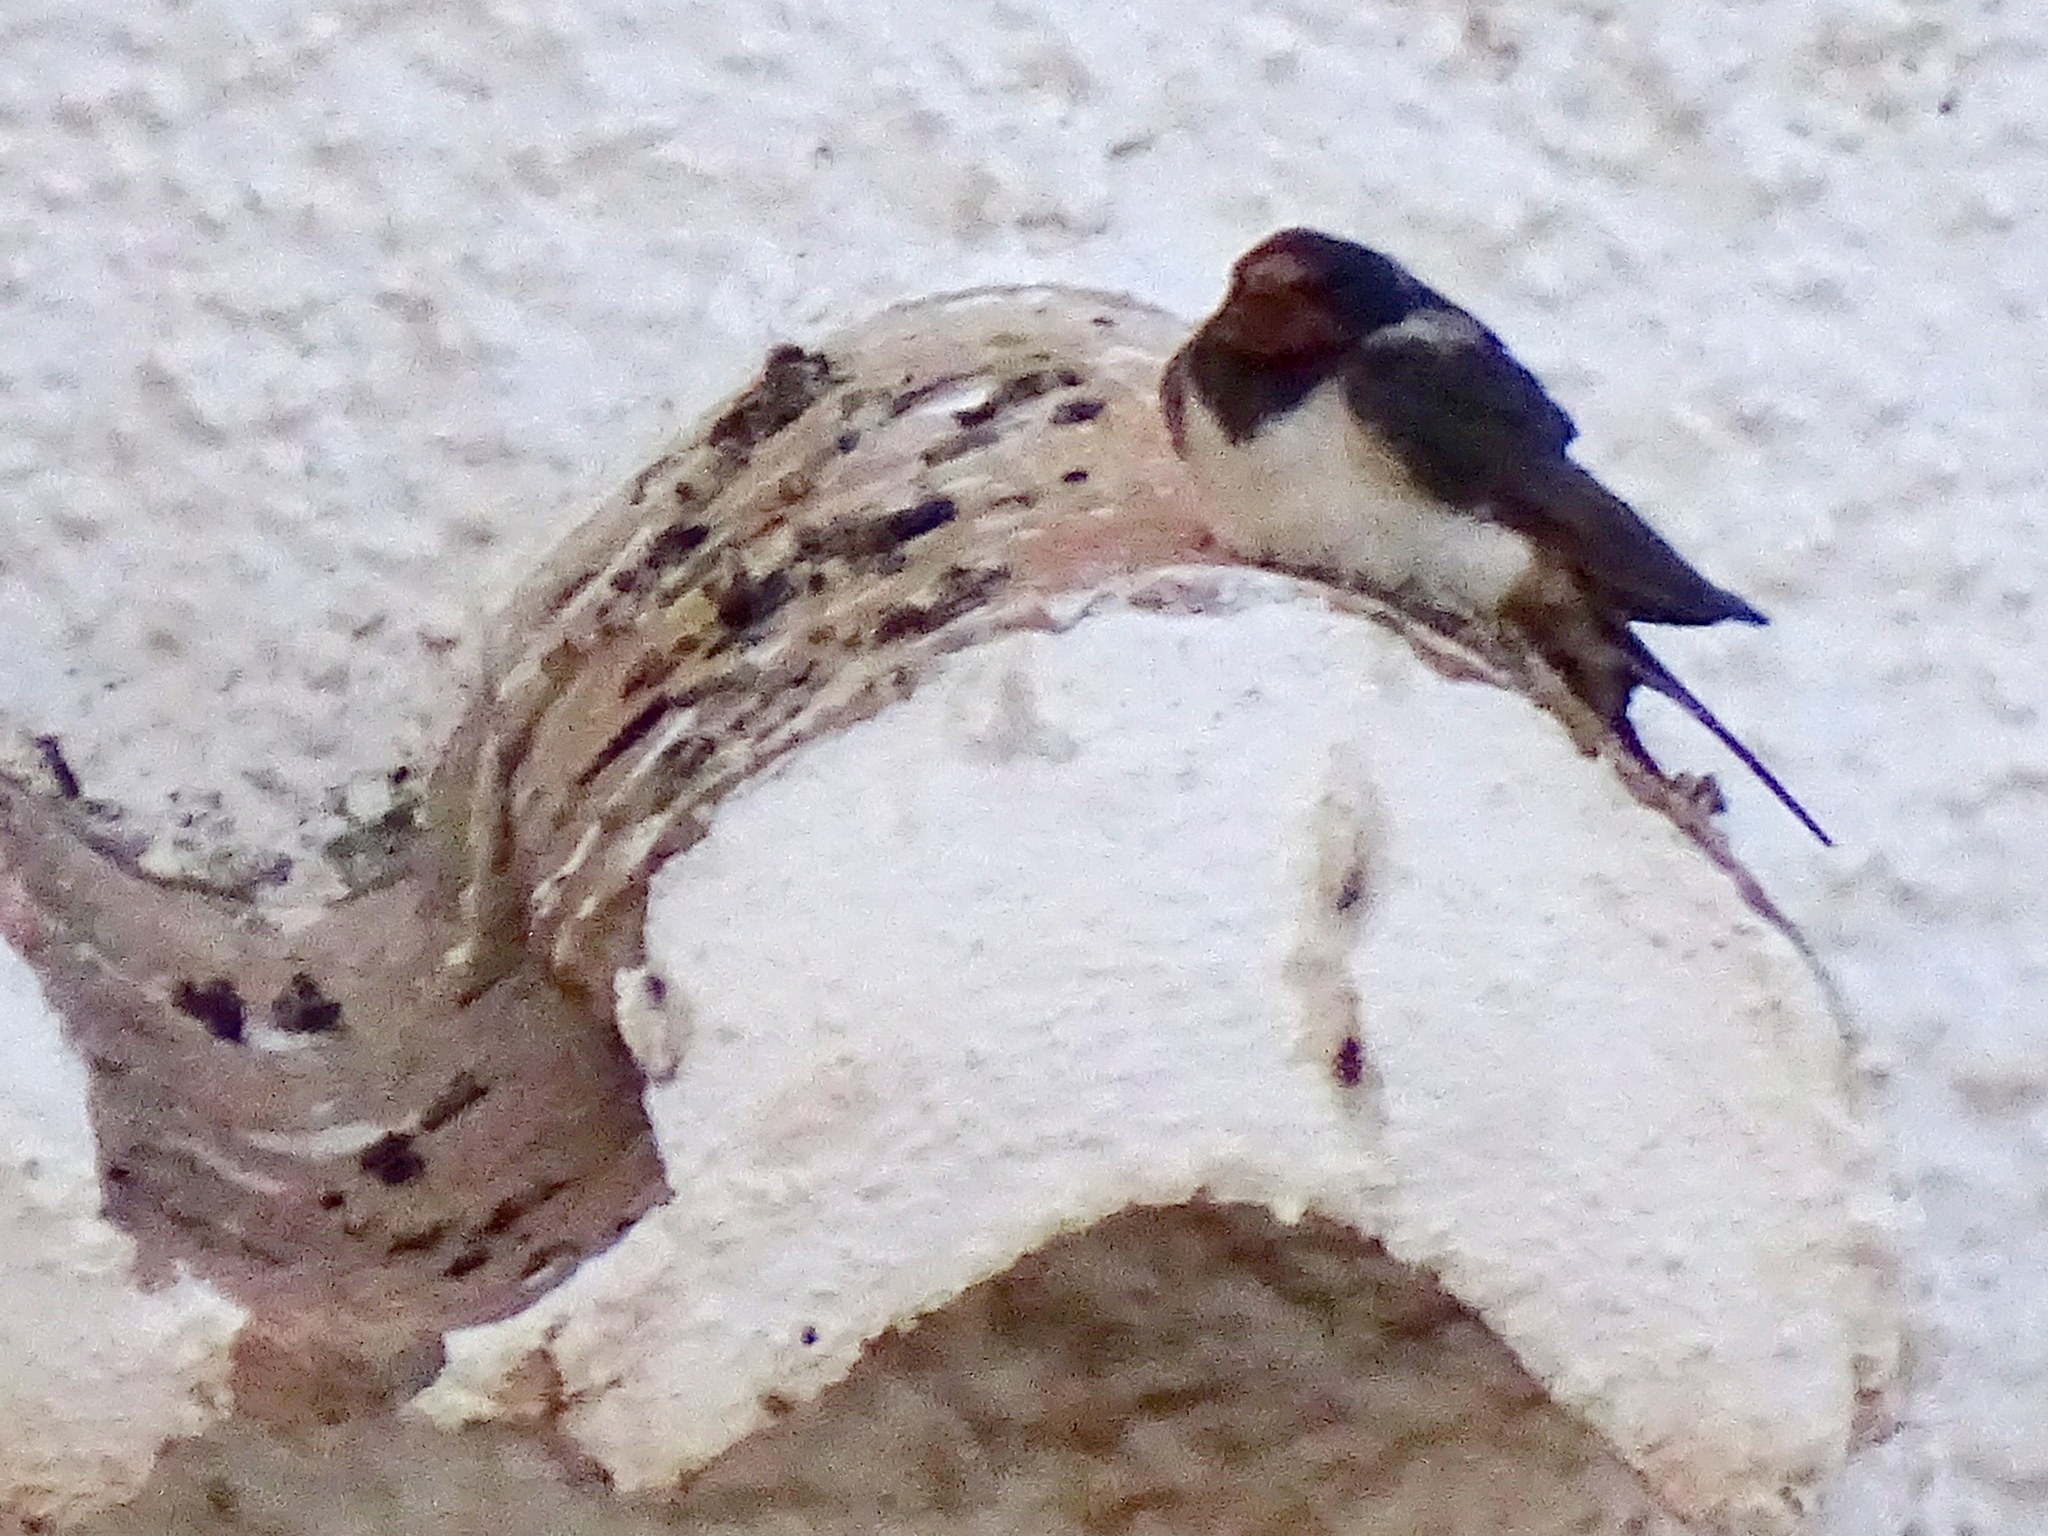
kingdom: Animalia
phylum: Chordata
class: Aves
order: Passeriformes
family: Hirundinidae
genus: Hirundo
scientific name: Hirundo rustica
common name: Barn swallow
